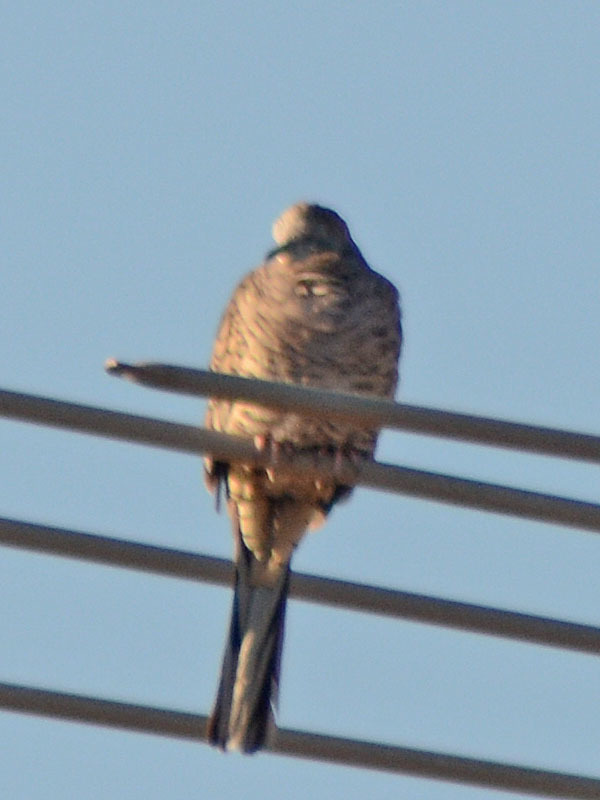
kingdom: Animalia
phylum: Chordata
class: Aves
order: Columbiformes
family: Columbidae
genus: Columbina
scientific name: Columbina inca
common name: Inca dove
